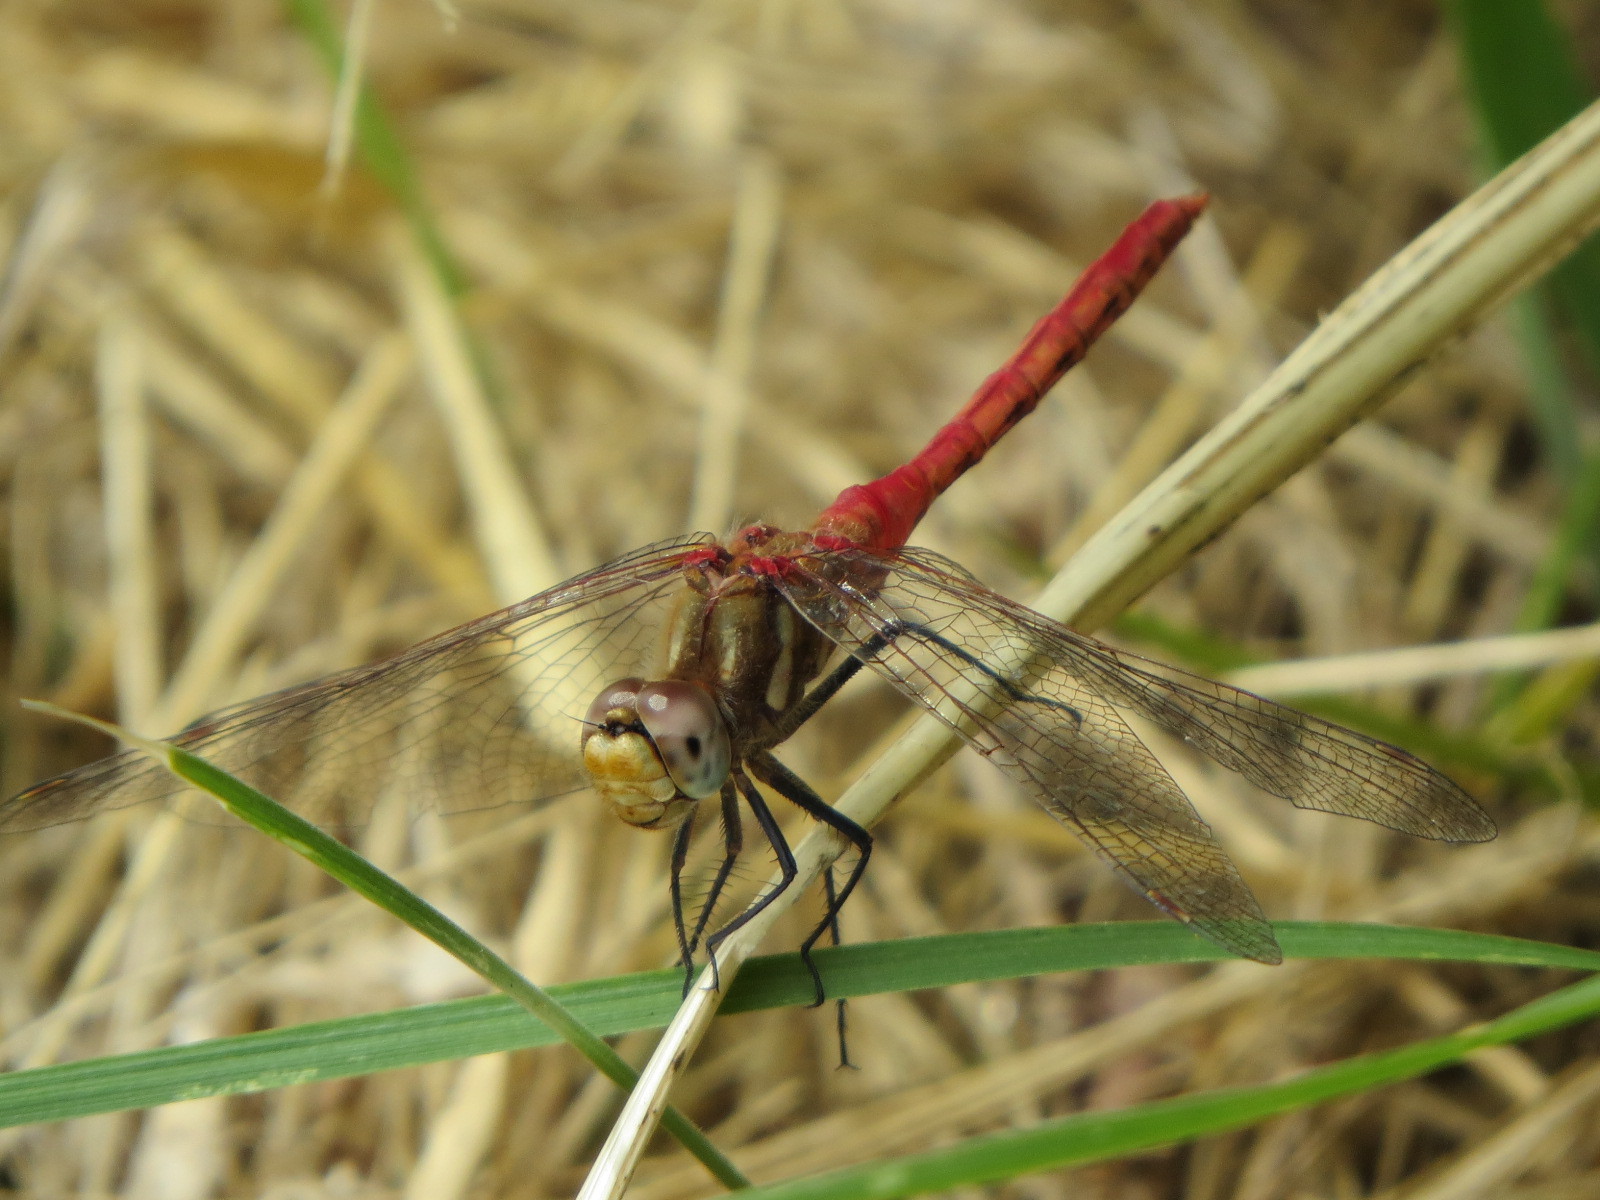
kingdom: Animalia
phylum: Arthropoda
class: Insecta
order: Odonata
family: Libellulidae
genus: Sympetrum
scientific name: Sympetrum pallipes
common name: Striped meadowhawk
